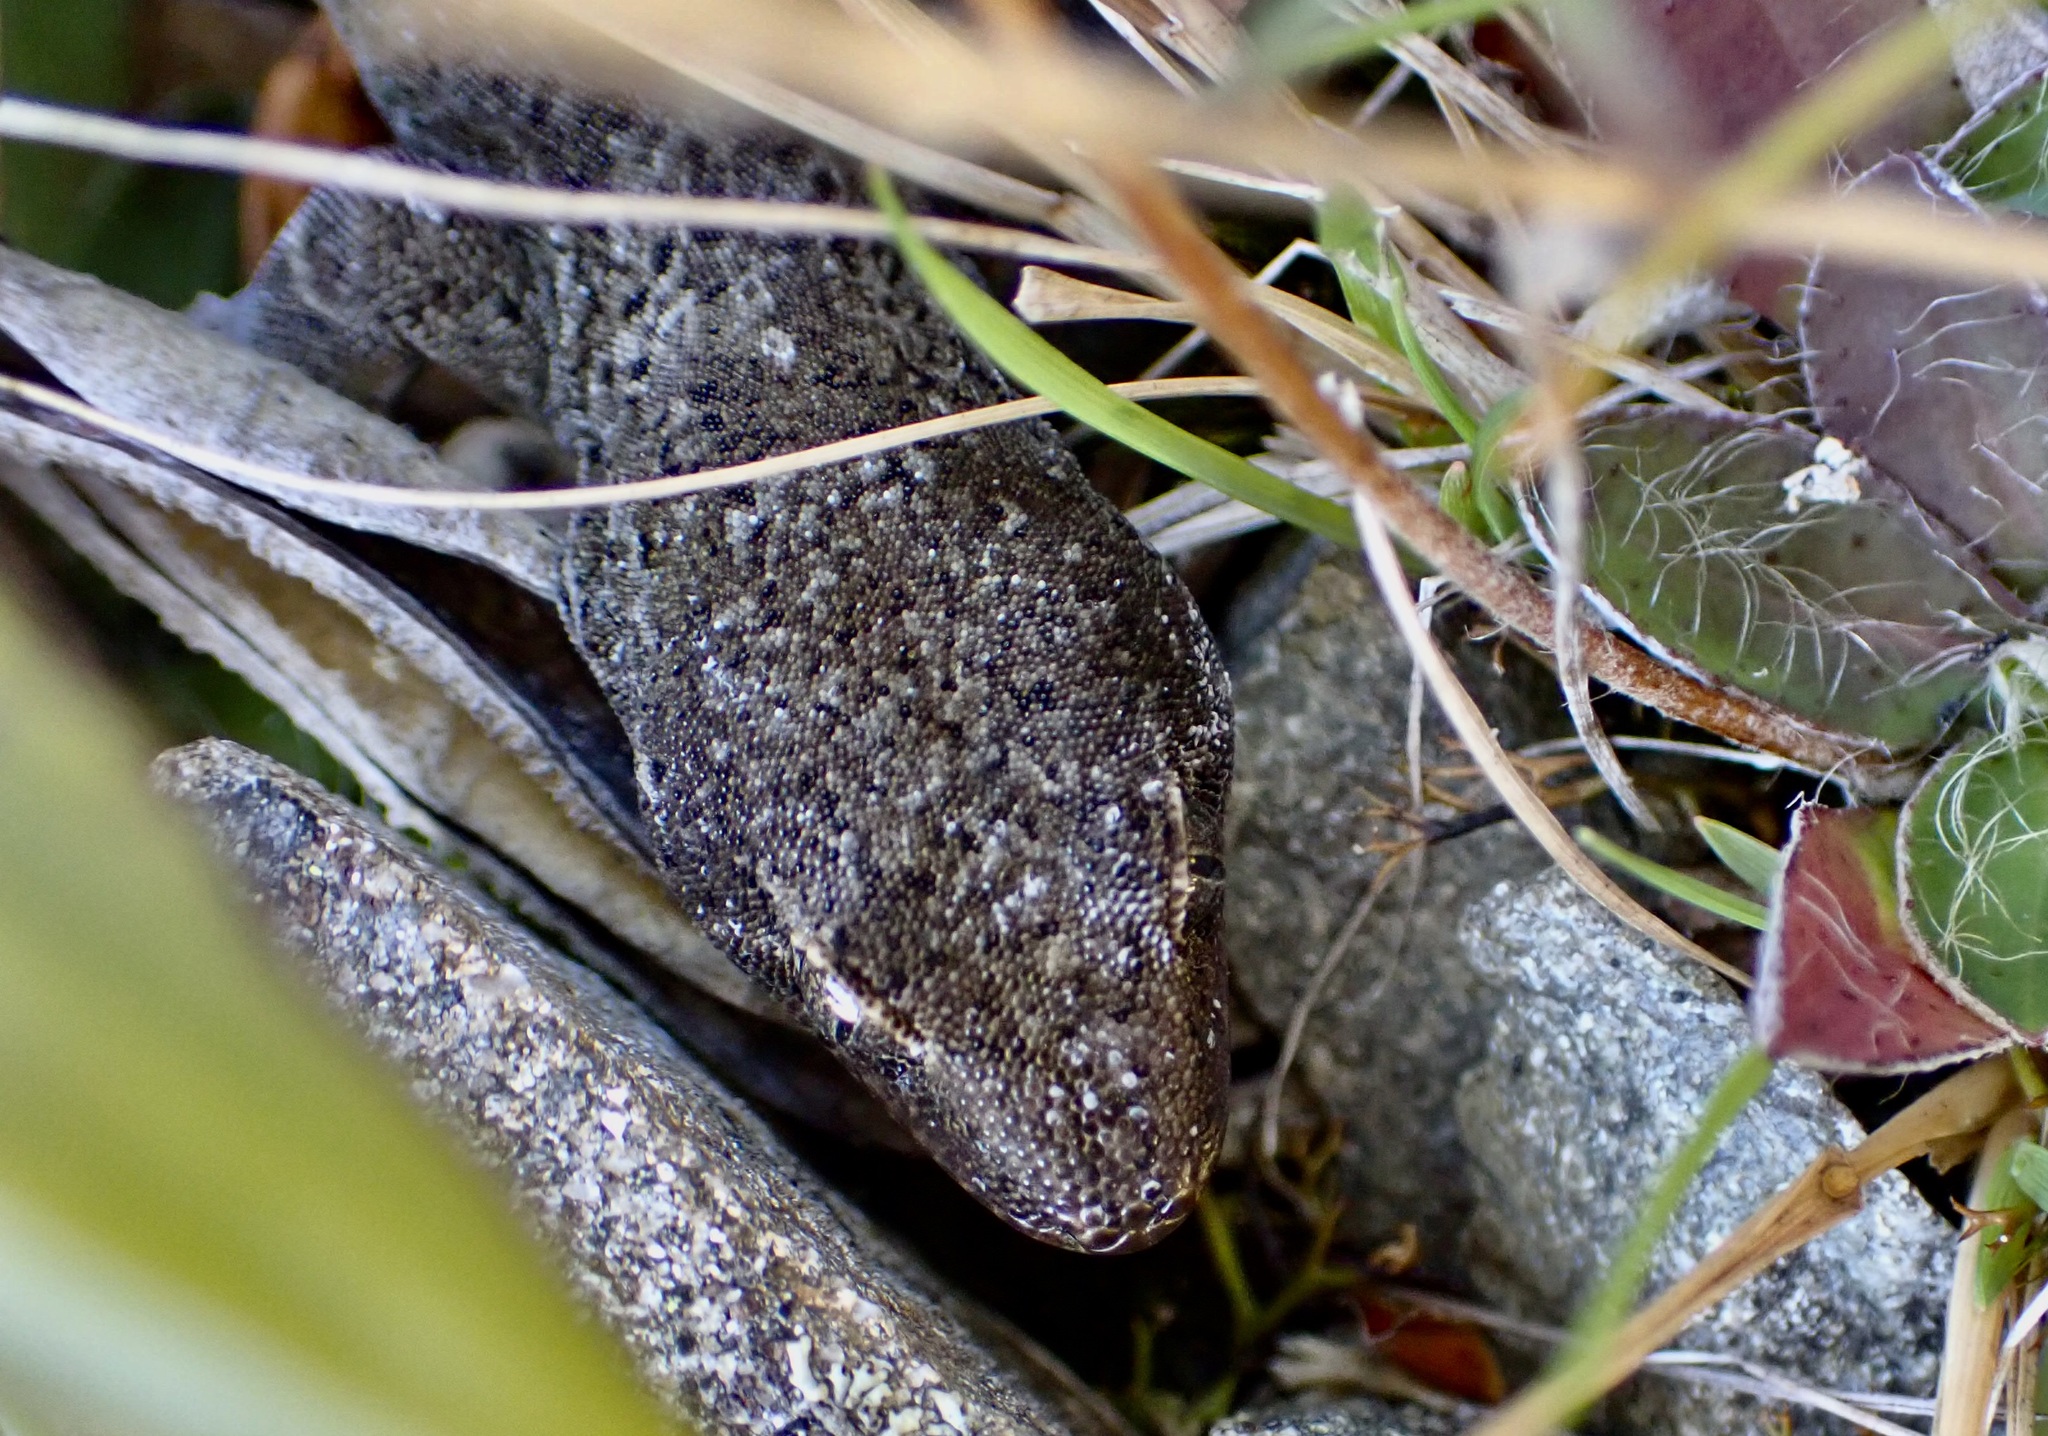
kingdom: Animalia
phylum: Chordata
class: Squamata
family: Diplodactylidae
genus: Woodworthia
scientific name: Woodworthia
